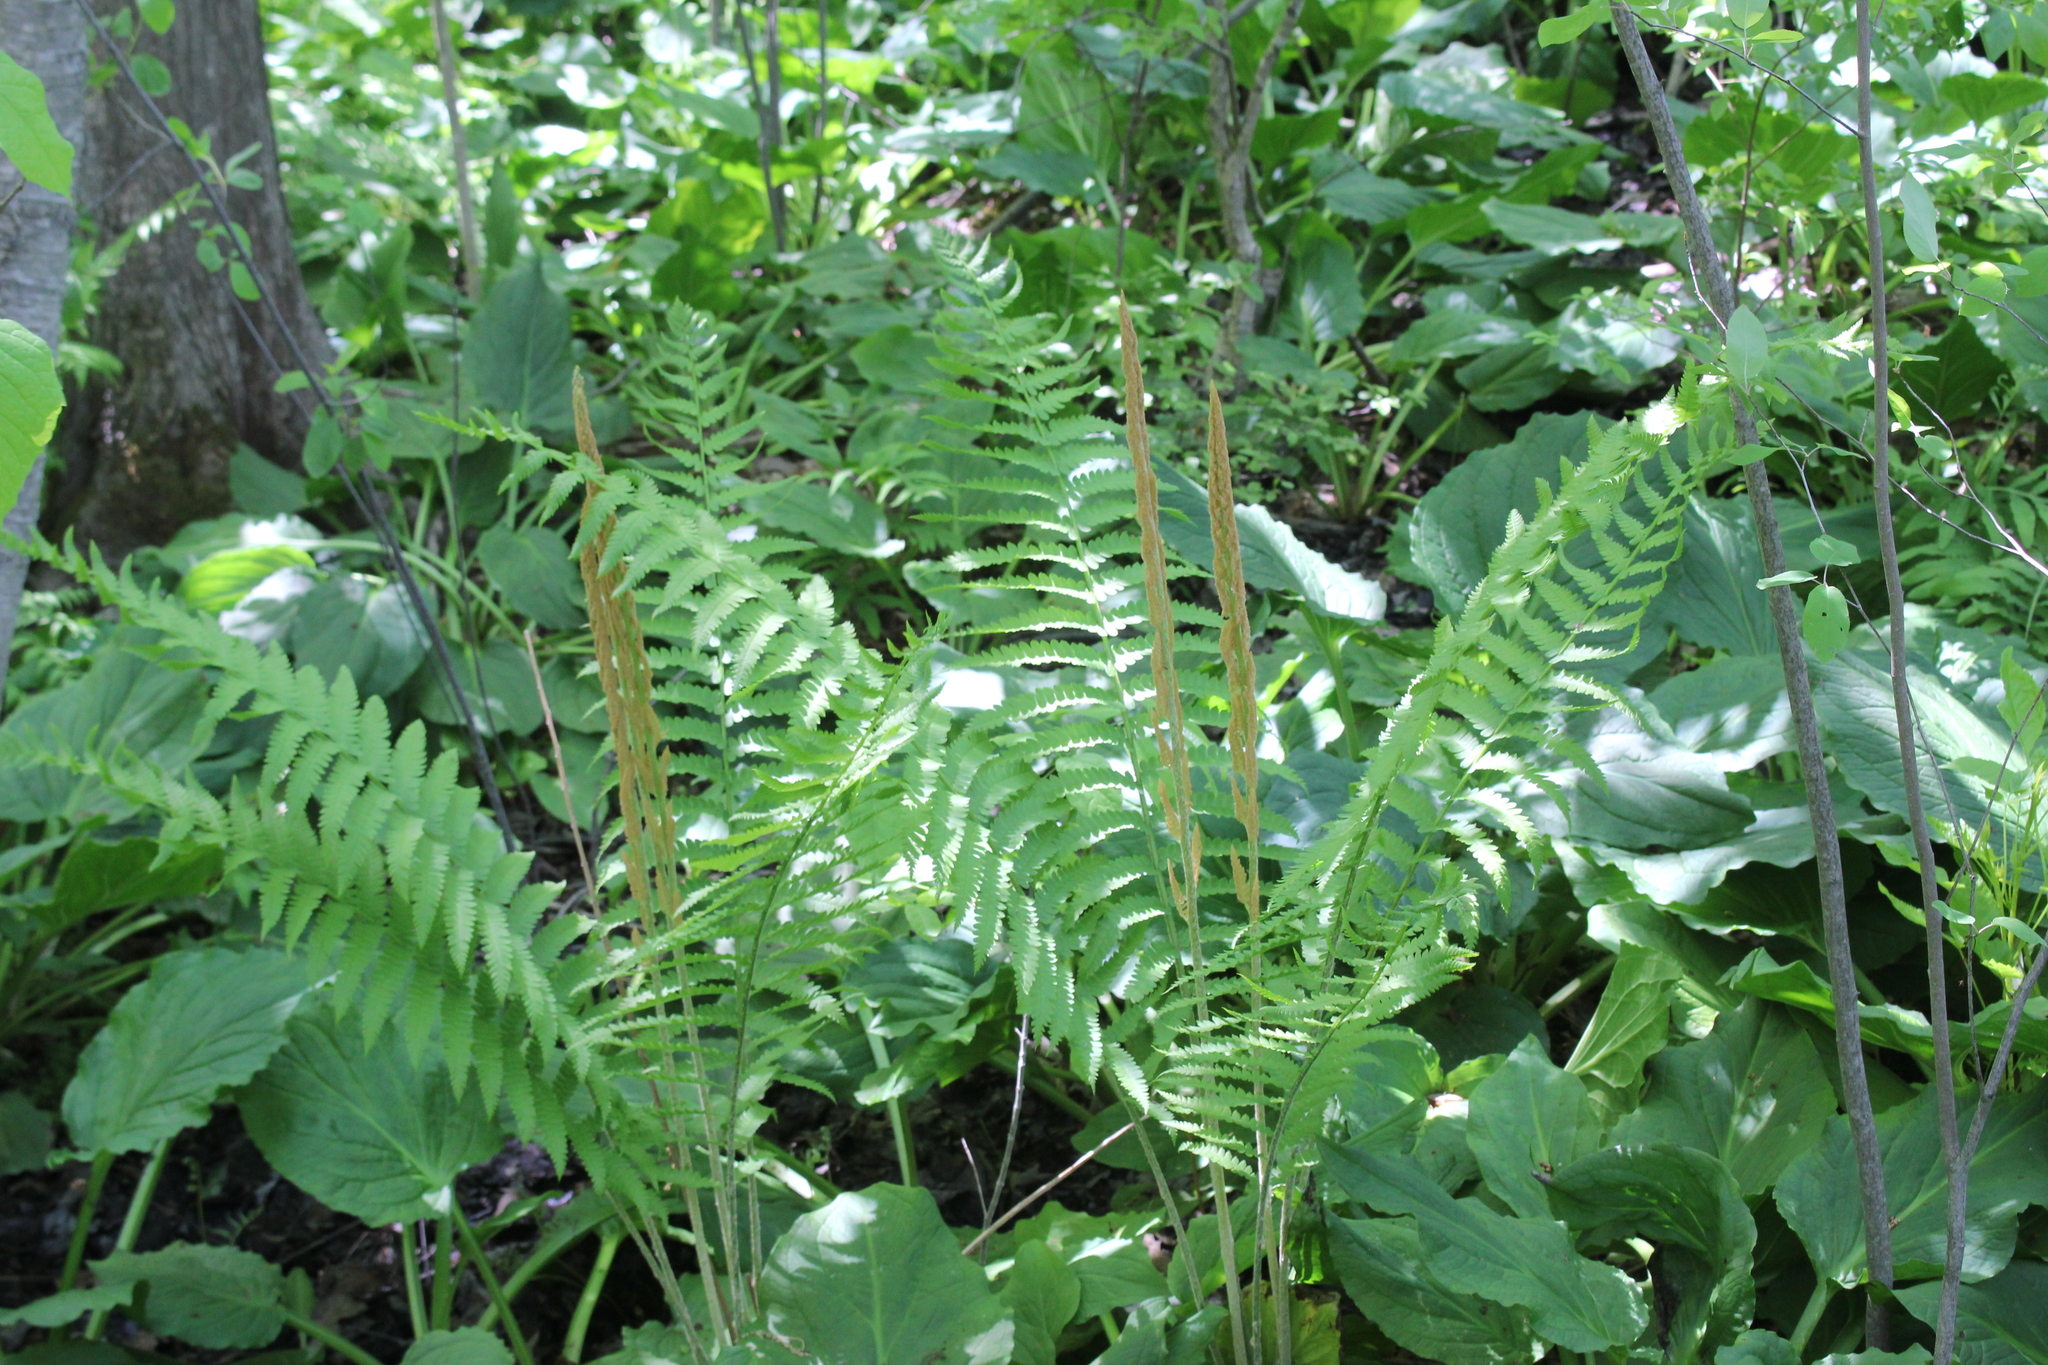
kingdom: Plantae
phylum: Tracheophyta
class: Polypodiopsida
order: Osmundales
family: Osmundaceae
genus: Osmundastrum
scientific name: Osmundastrum cinnamomeum
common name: Cinnamon fern
